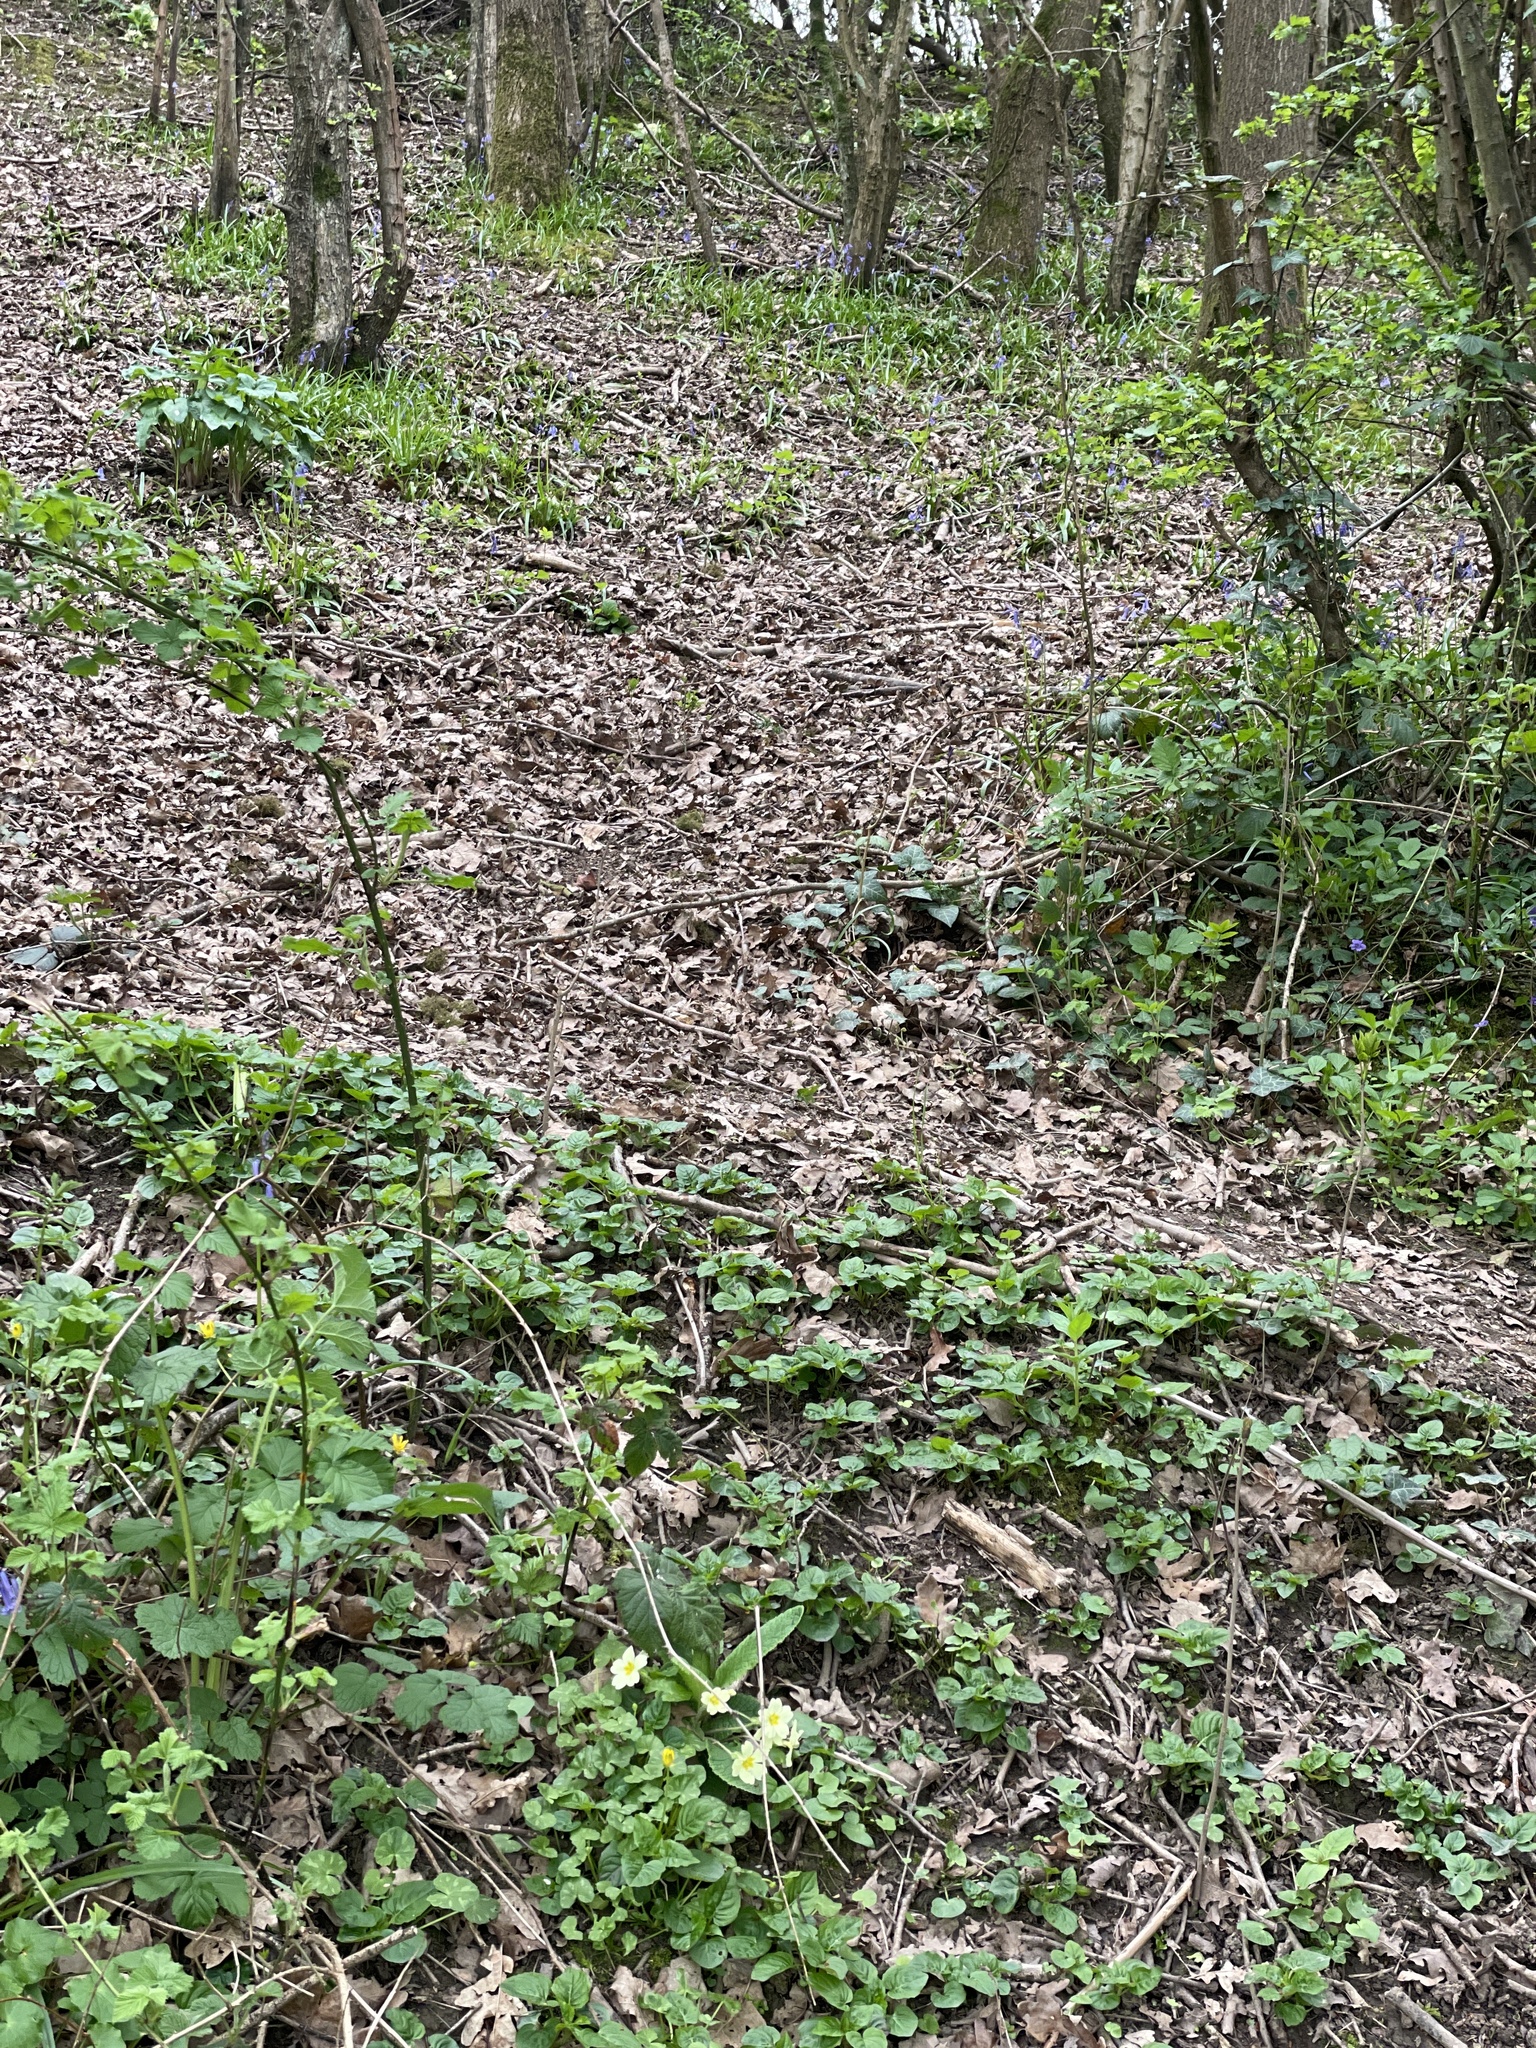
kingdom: Plantae
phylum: Tracheophyta
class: Magnoliopsida
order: Ericales
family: Primulaceae
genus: Primula
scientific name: Primula vulgaris
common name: Primrose
